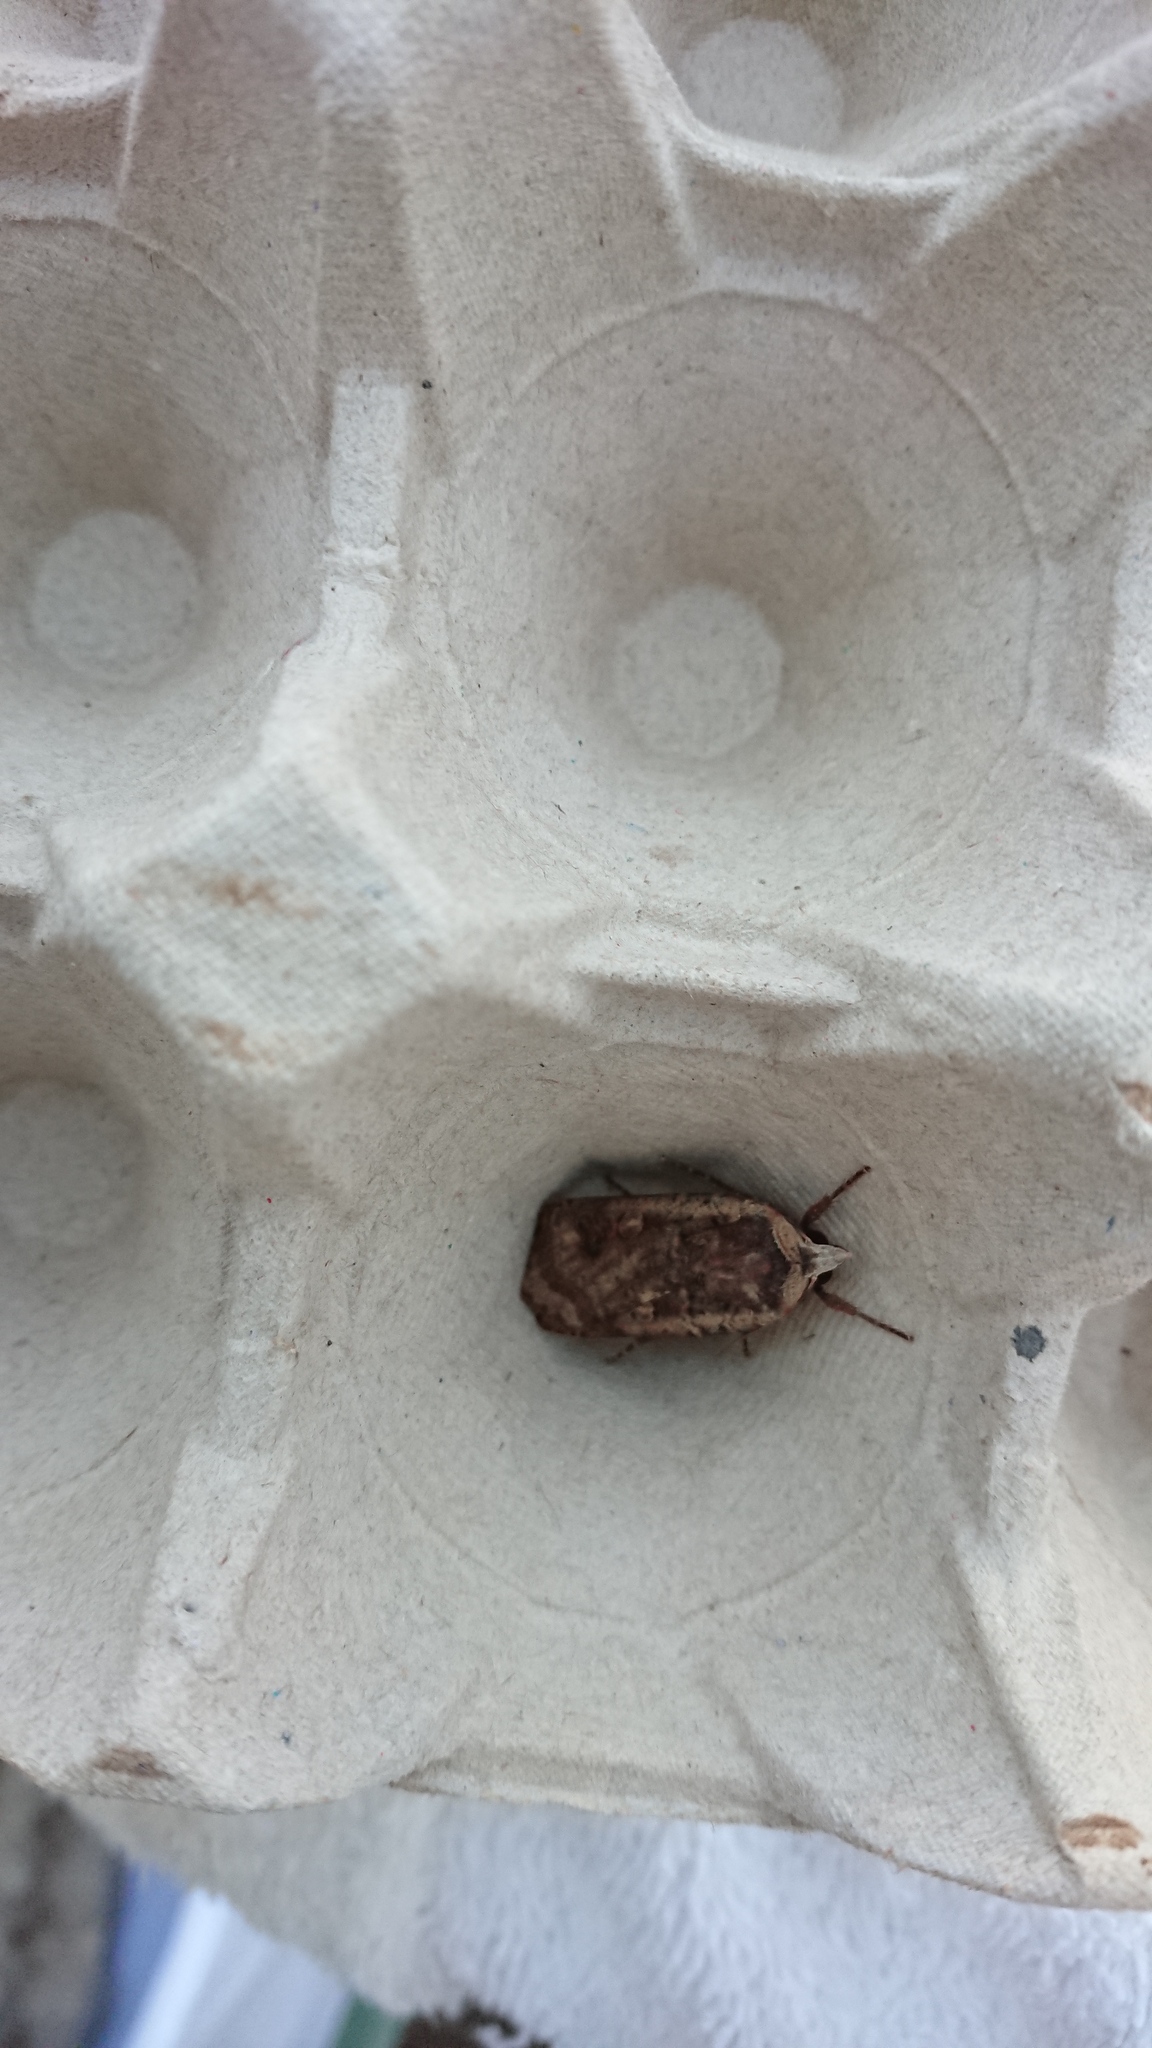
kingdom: Animalia
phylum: Arthropoda
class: Insecta
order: Lepidoptera
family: Noctuidae
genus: Noctua
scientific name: Noctua pronuba
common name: Large yellow underwing
